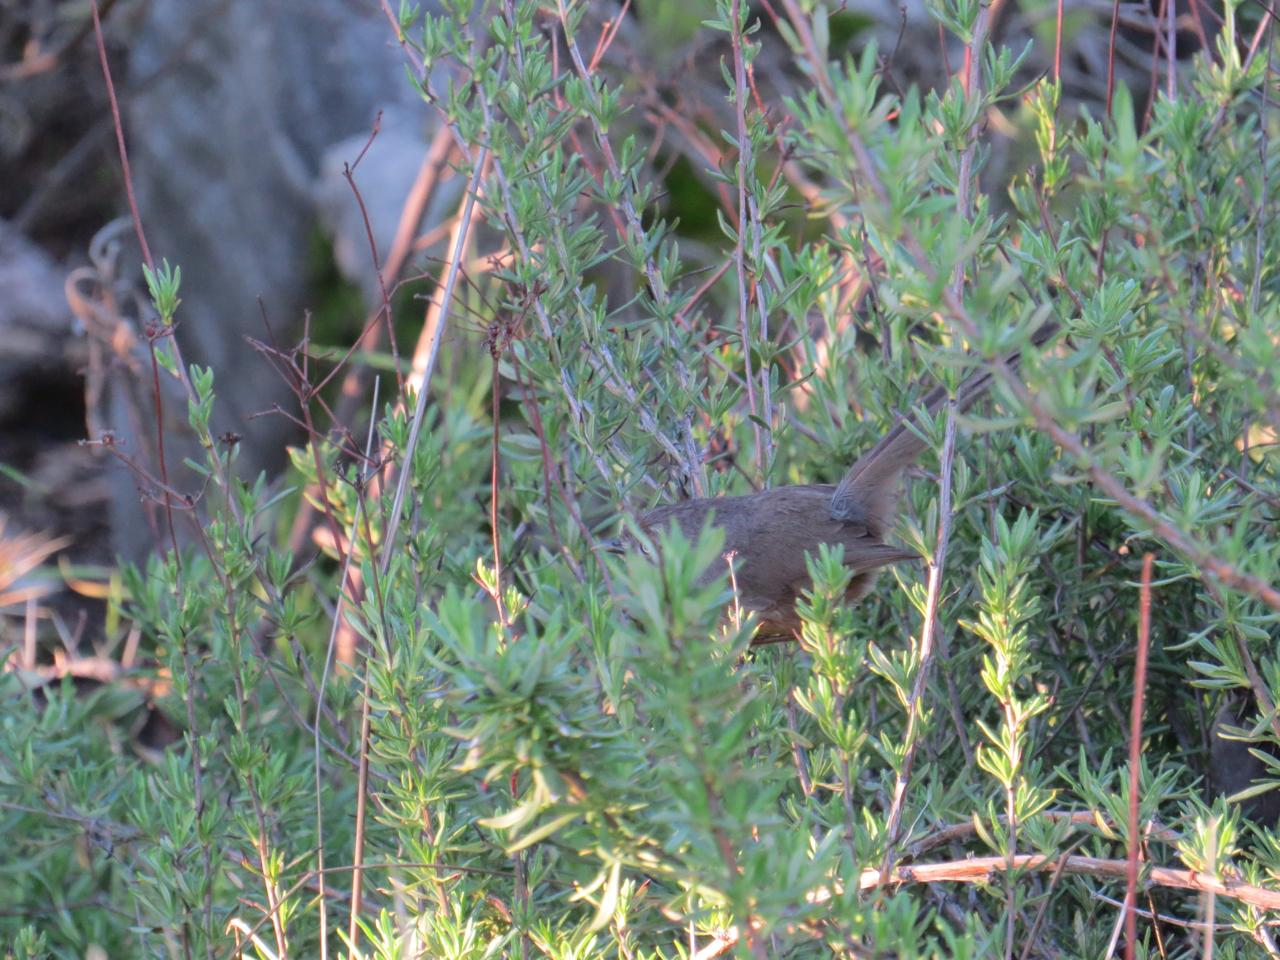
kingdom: Animalia
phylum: Chordata
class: Aves
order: Passeriformes
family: Sylviidae
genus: Chamaea
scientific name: Chamaea fasciata
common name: Wrentit
